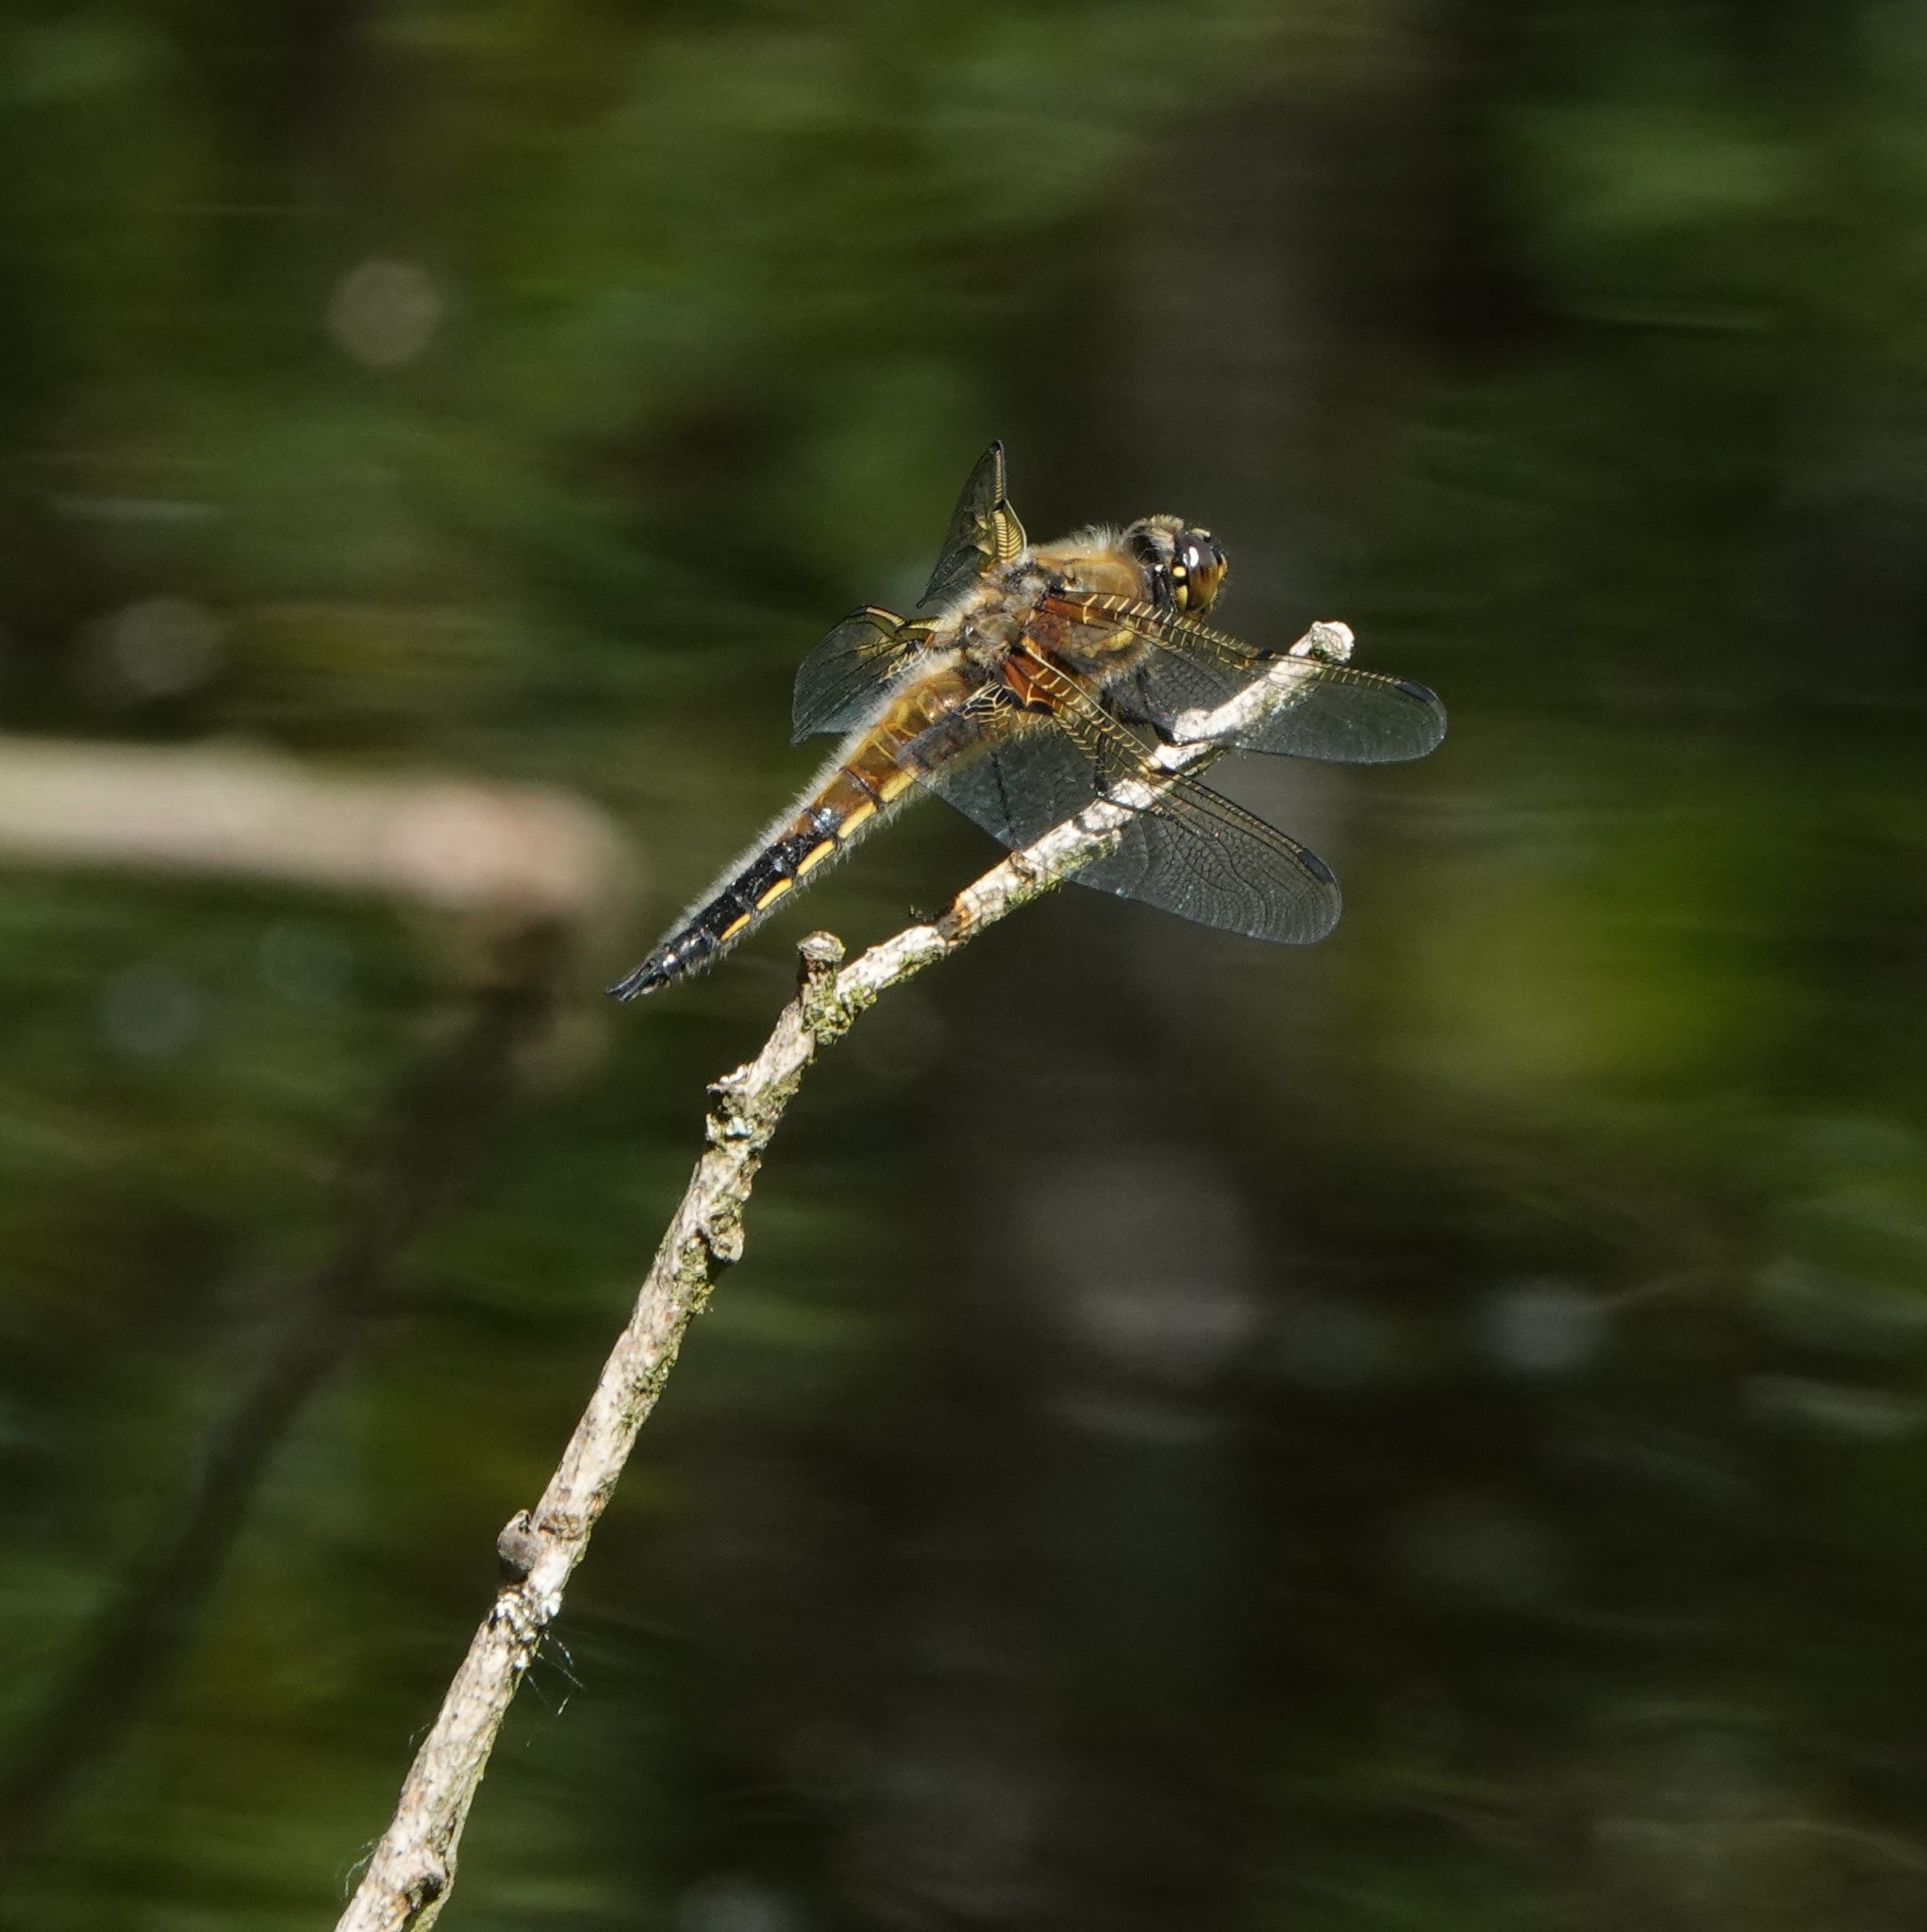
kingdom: Animalia
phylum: Arthropoda
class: Insecta
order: Odonata
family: Libellulidae
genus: Libellula
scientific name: Libellula quadrimaculata
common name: Four-spotted chaser
